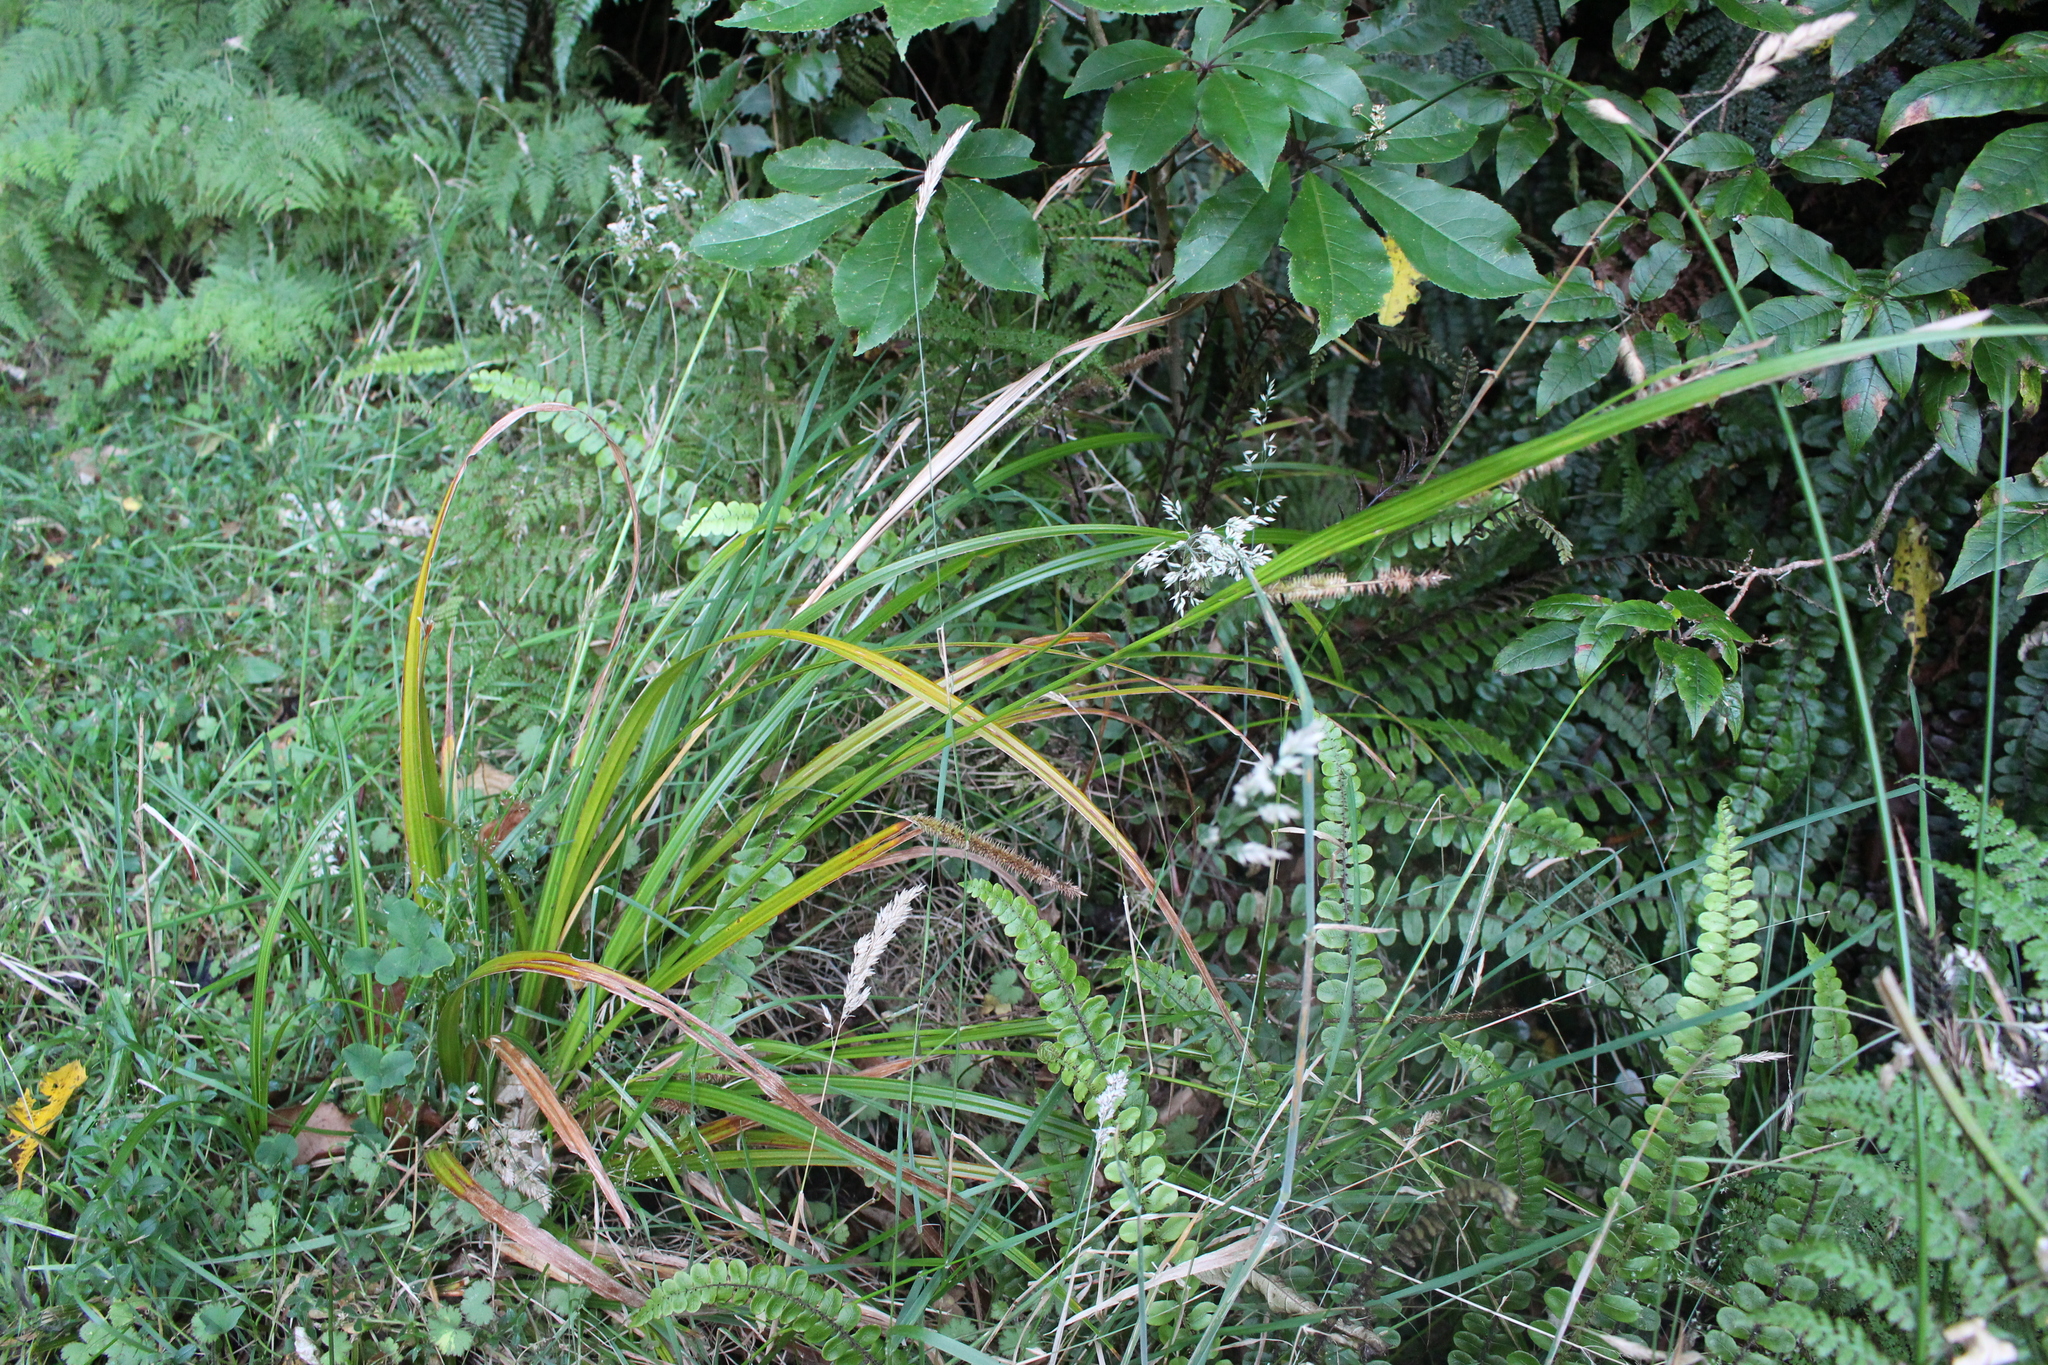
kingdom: Plantae
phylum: Tracheophyta
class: Liliopsida
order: Poales
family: Cyperaceae
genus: Carex
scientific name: Carex forsteri
